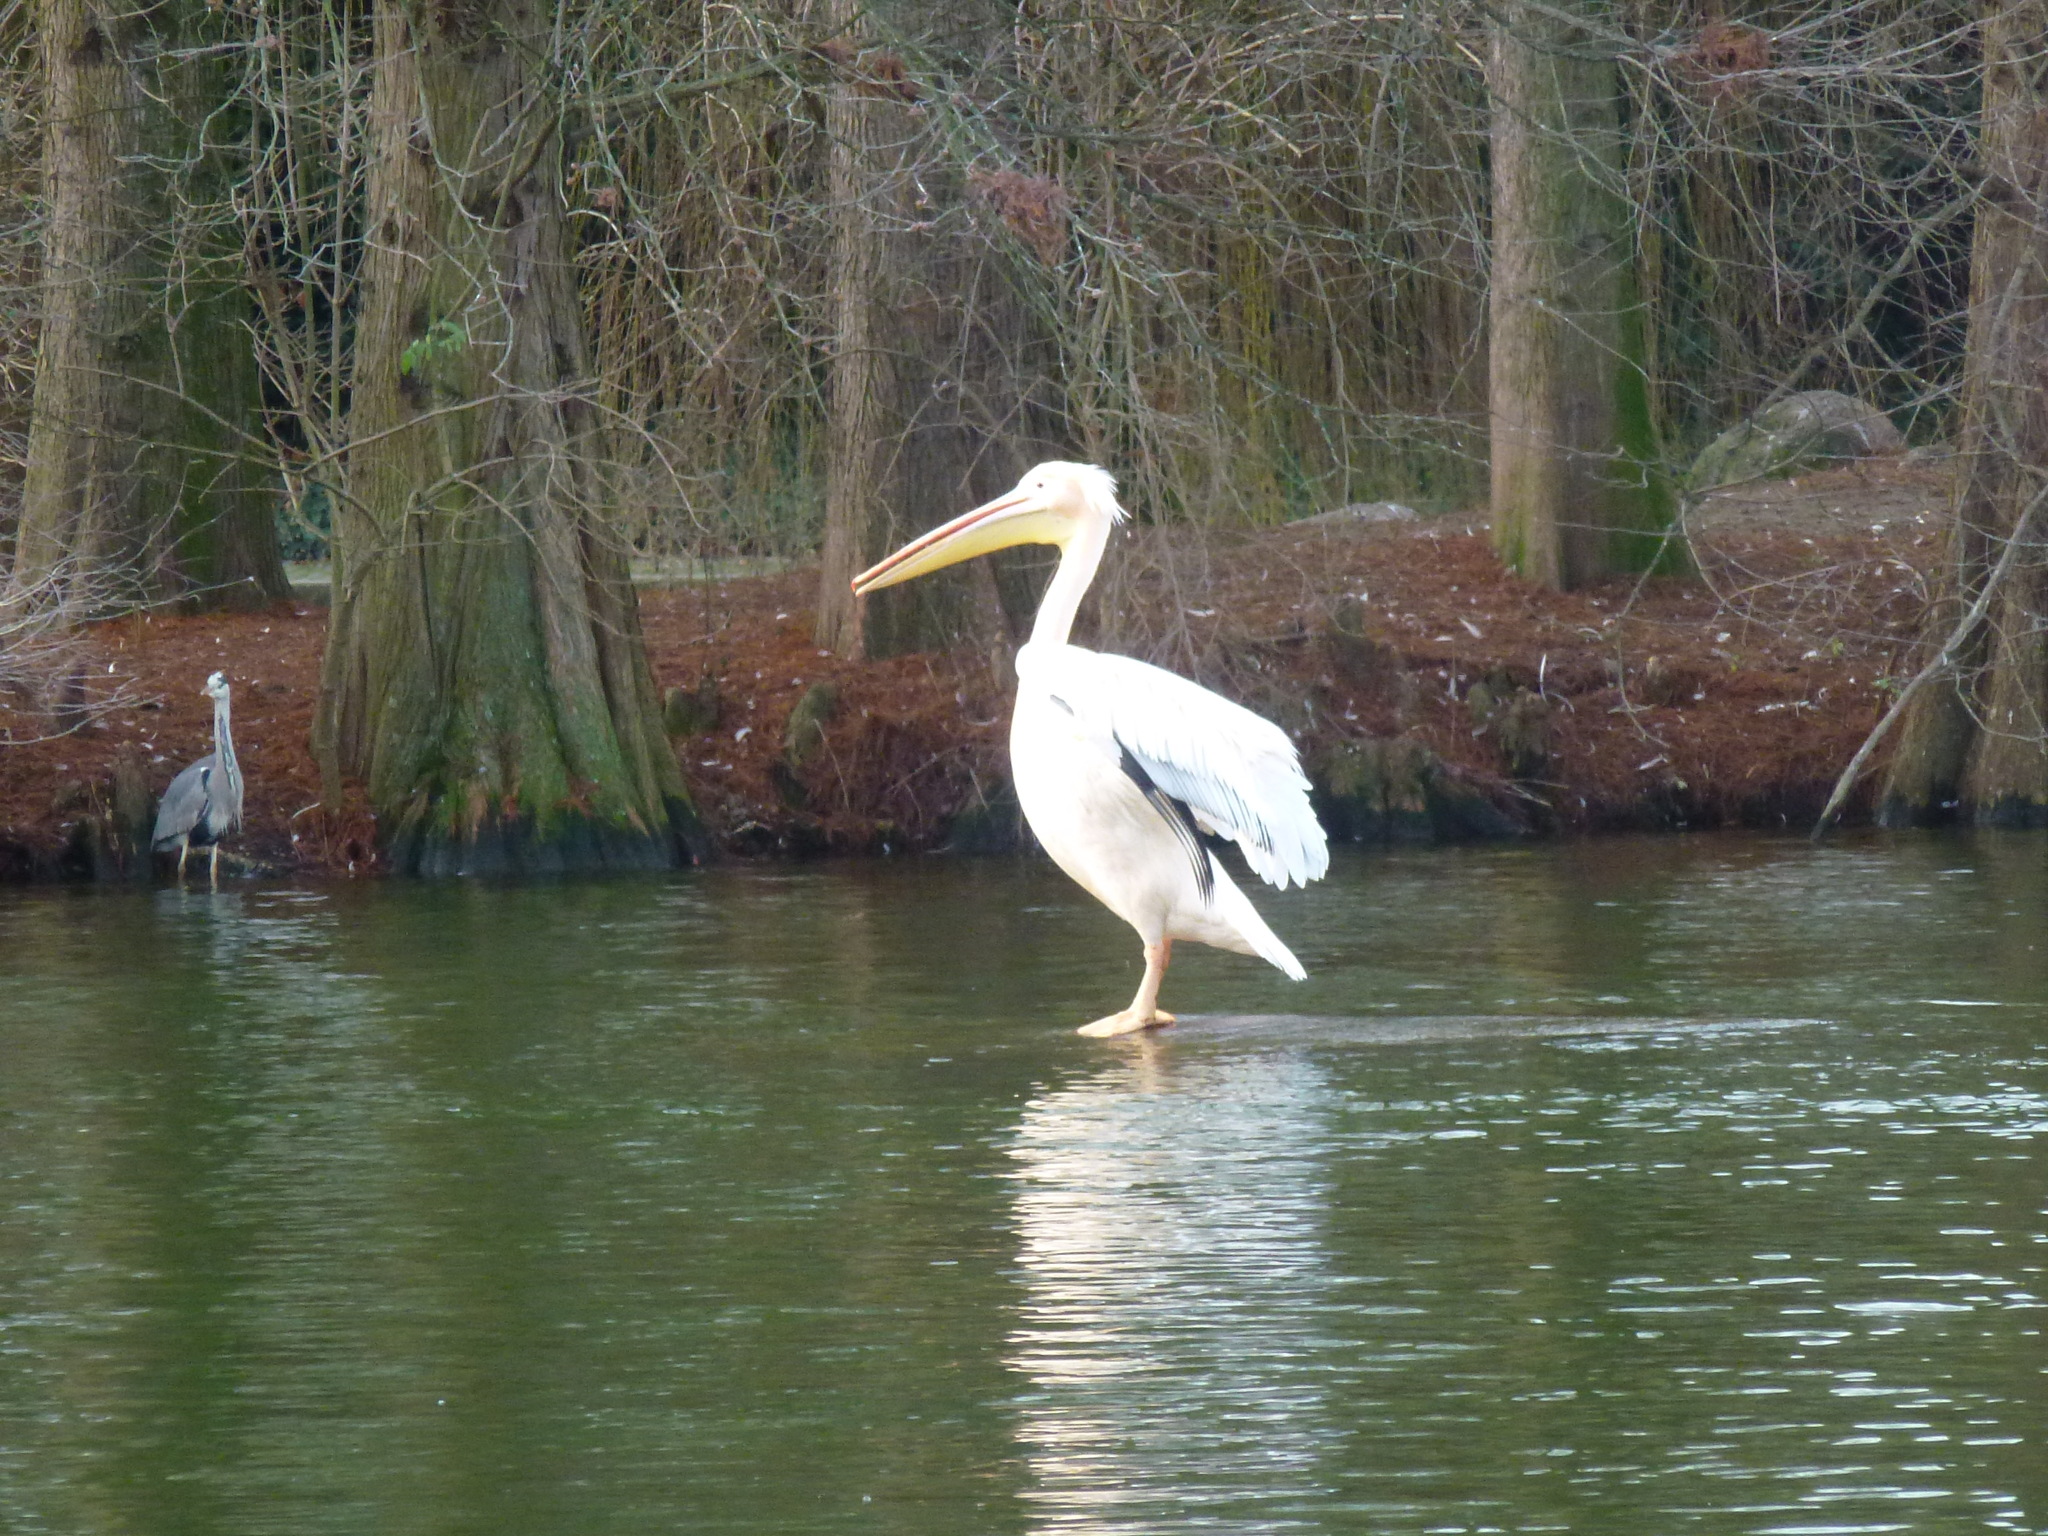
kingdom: Animalia
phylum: Chordata
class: Aves
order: Pelecaniformes
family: Ardeidae
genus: Ardea
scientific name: Ardea cinerea
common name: Grey heron
